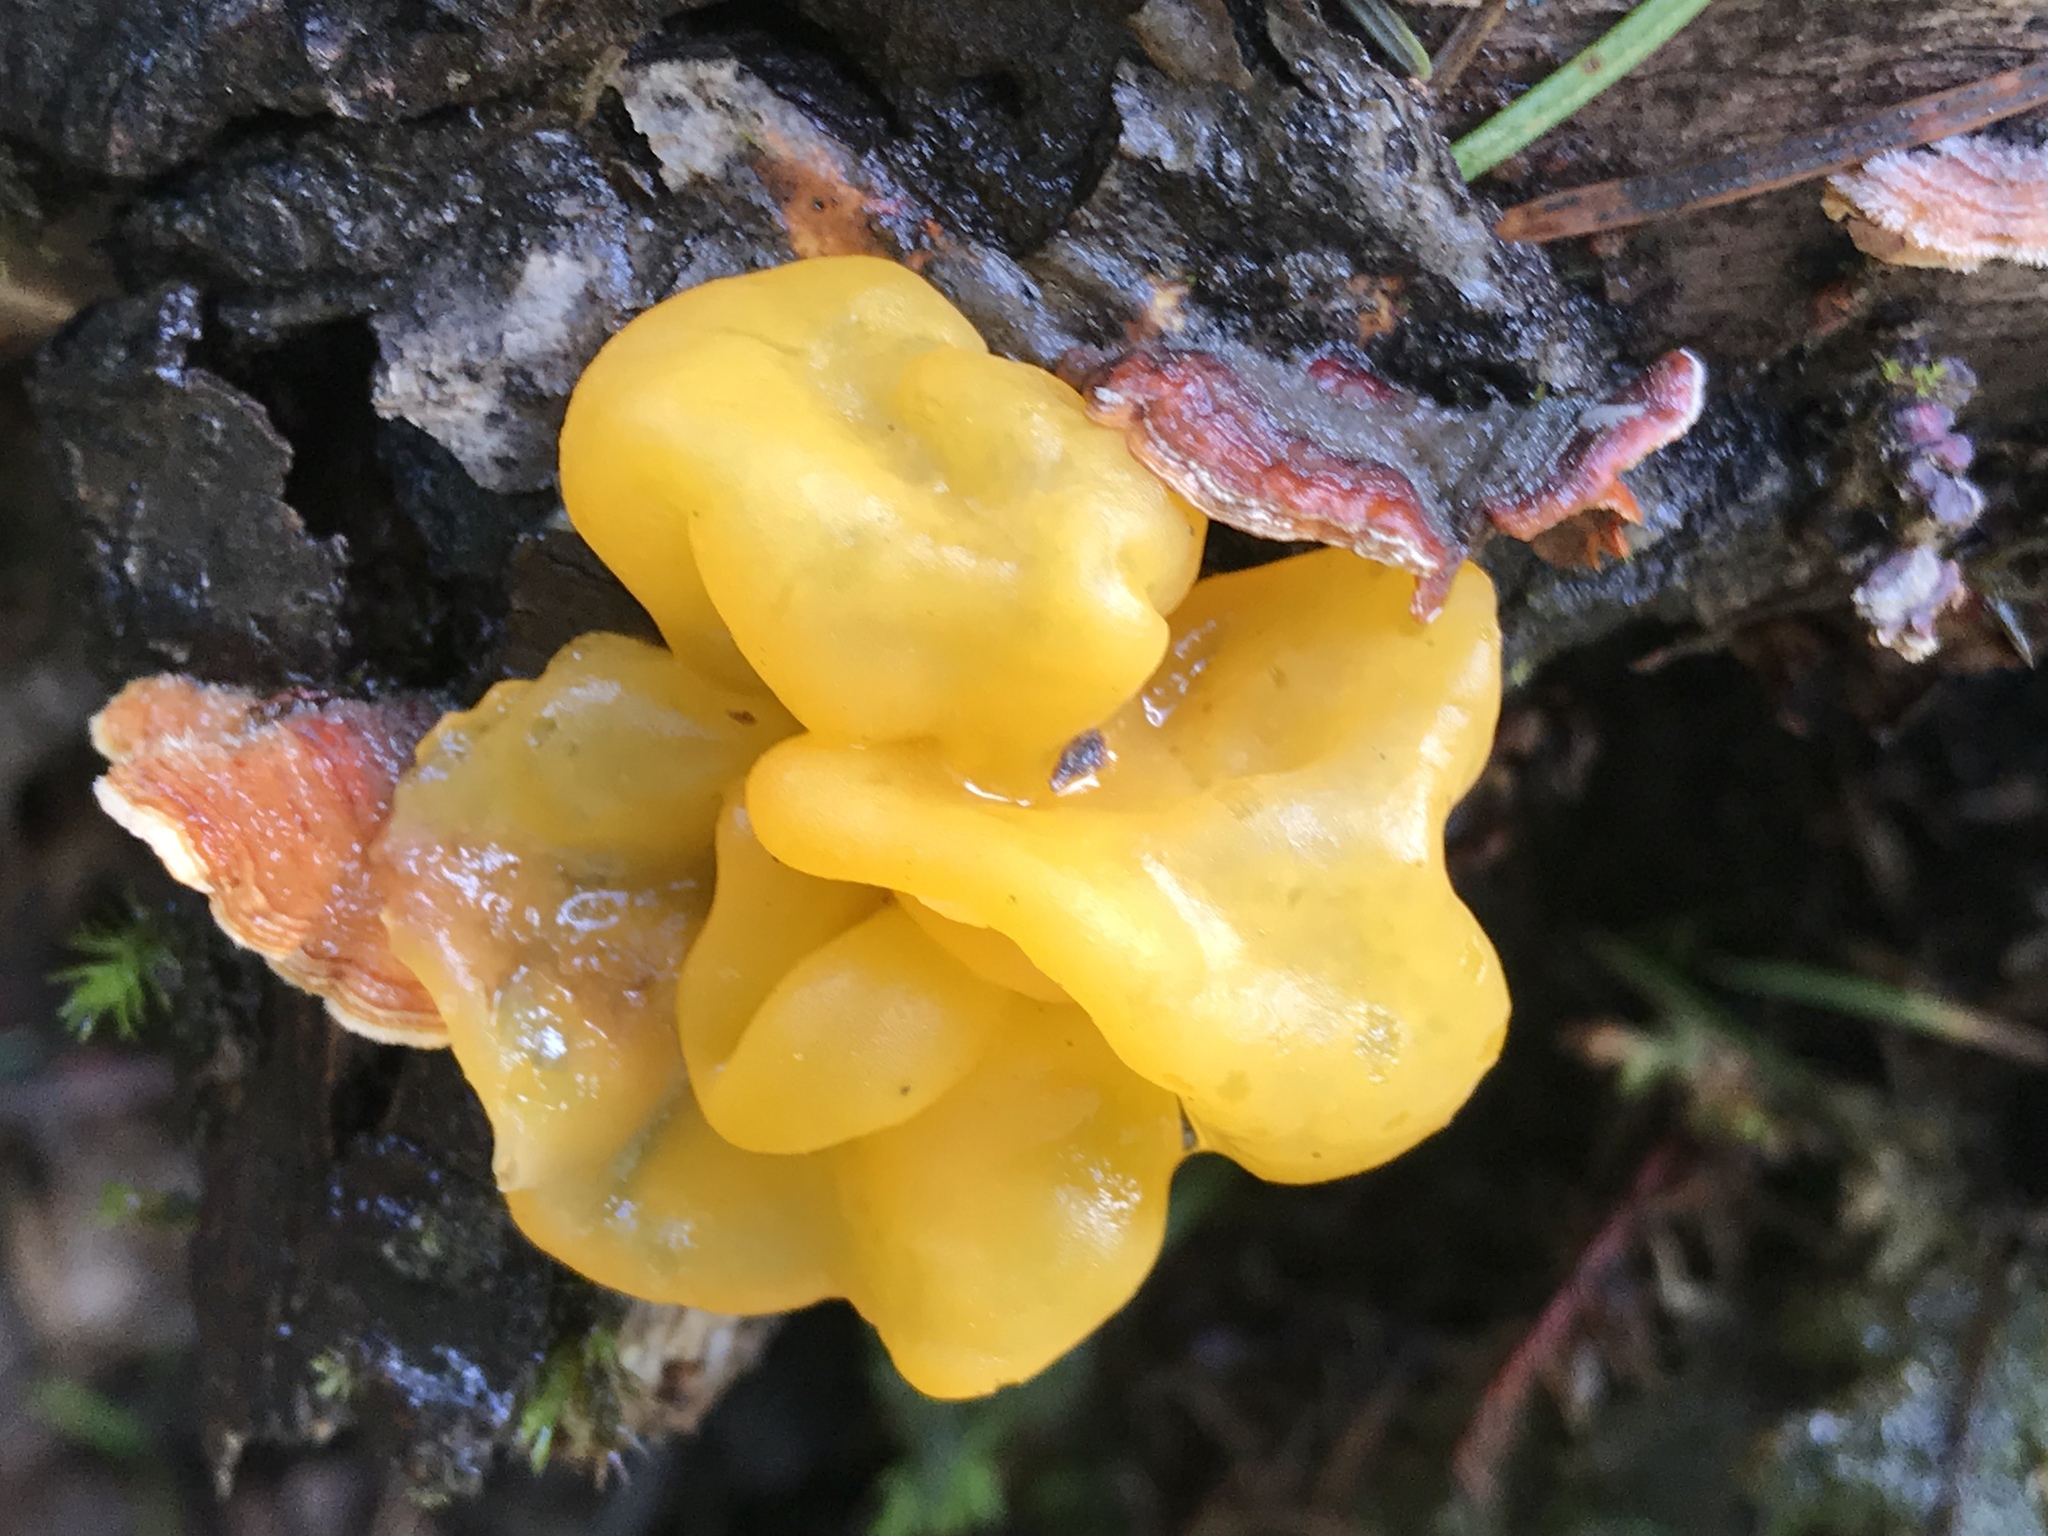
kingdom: Fungi
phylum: Basidiomycota
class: Tremellomycetes
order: Tremellales
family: Naemateliaceae
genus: Naematelia
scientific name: Naematelia aurantia
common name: Golden ear
